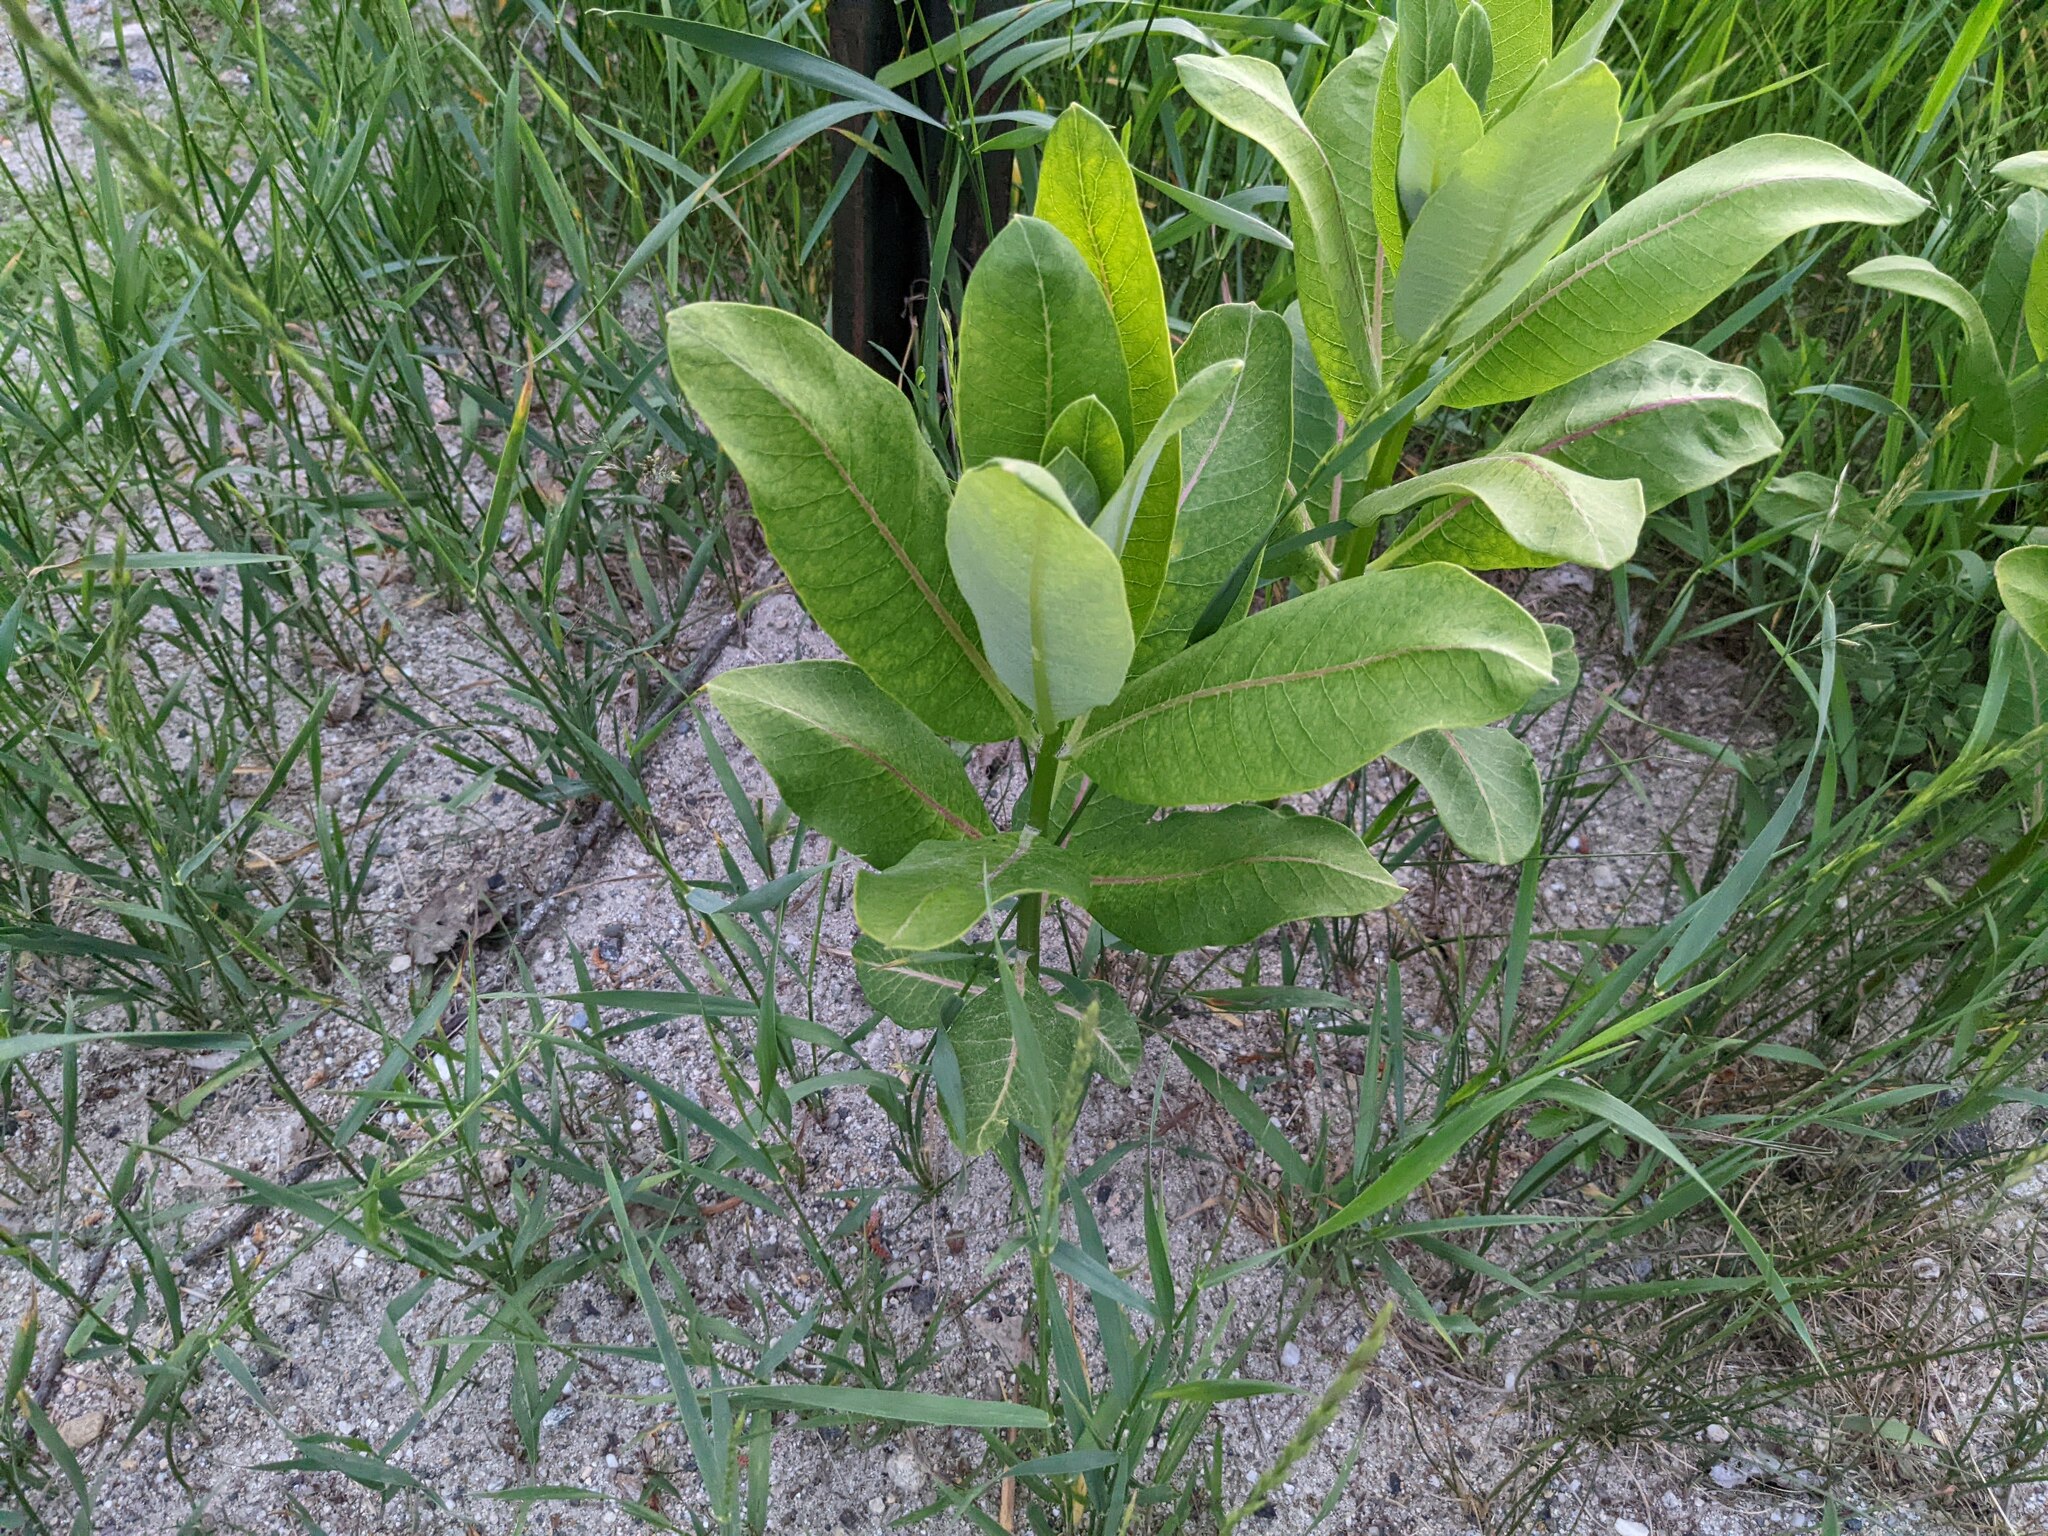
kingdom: Plantae
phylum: Tracheophyta
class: Magnoliopsida
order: Gentianales
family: Apocynaceae
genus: Asclepias
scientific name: Asclepias syriaca
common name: Common milkweed
